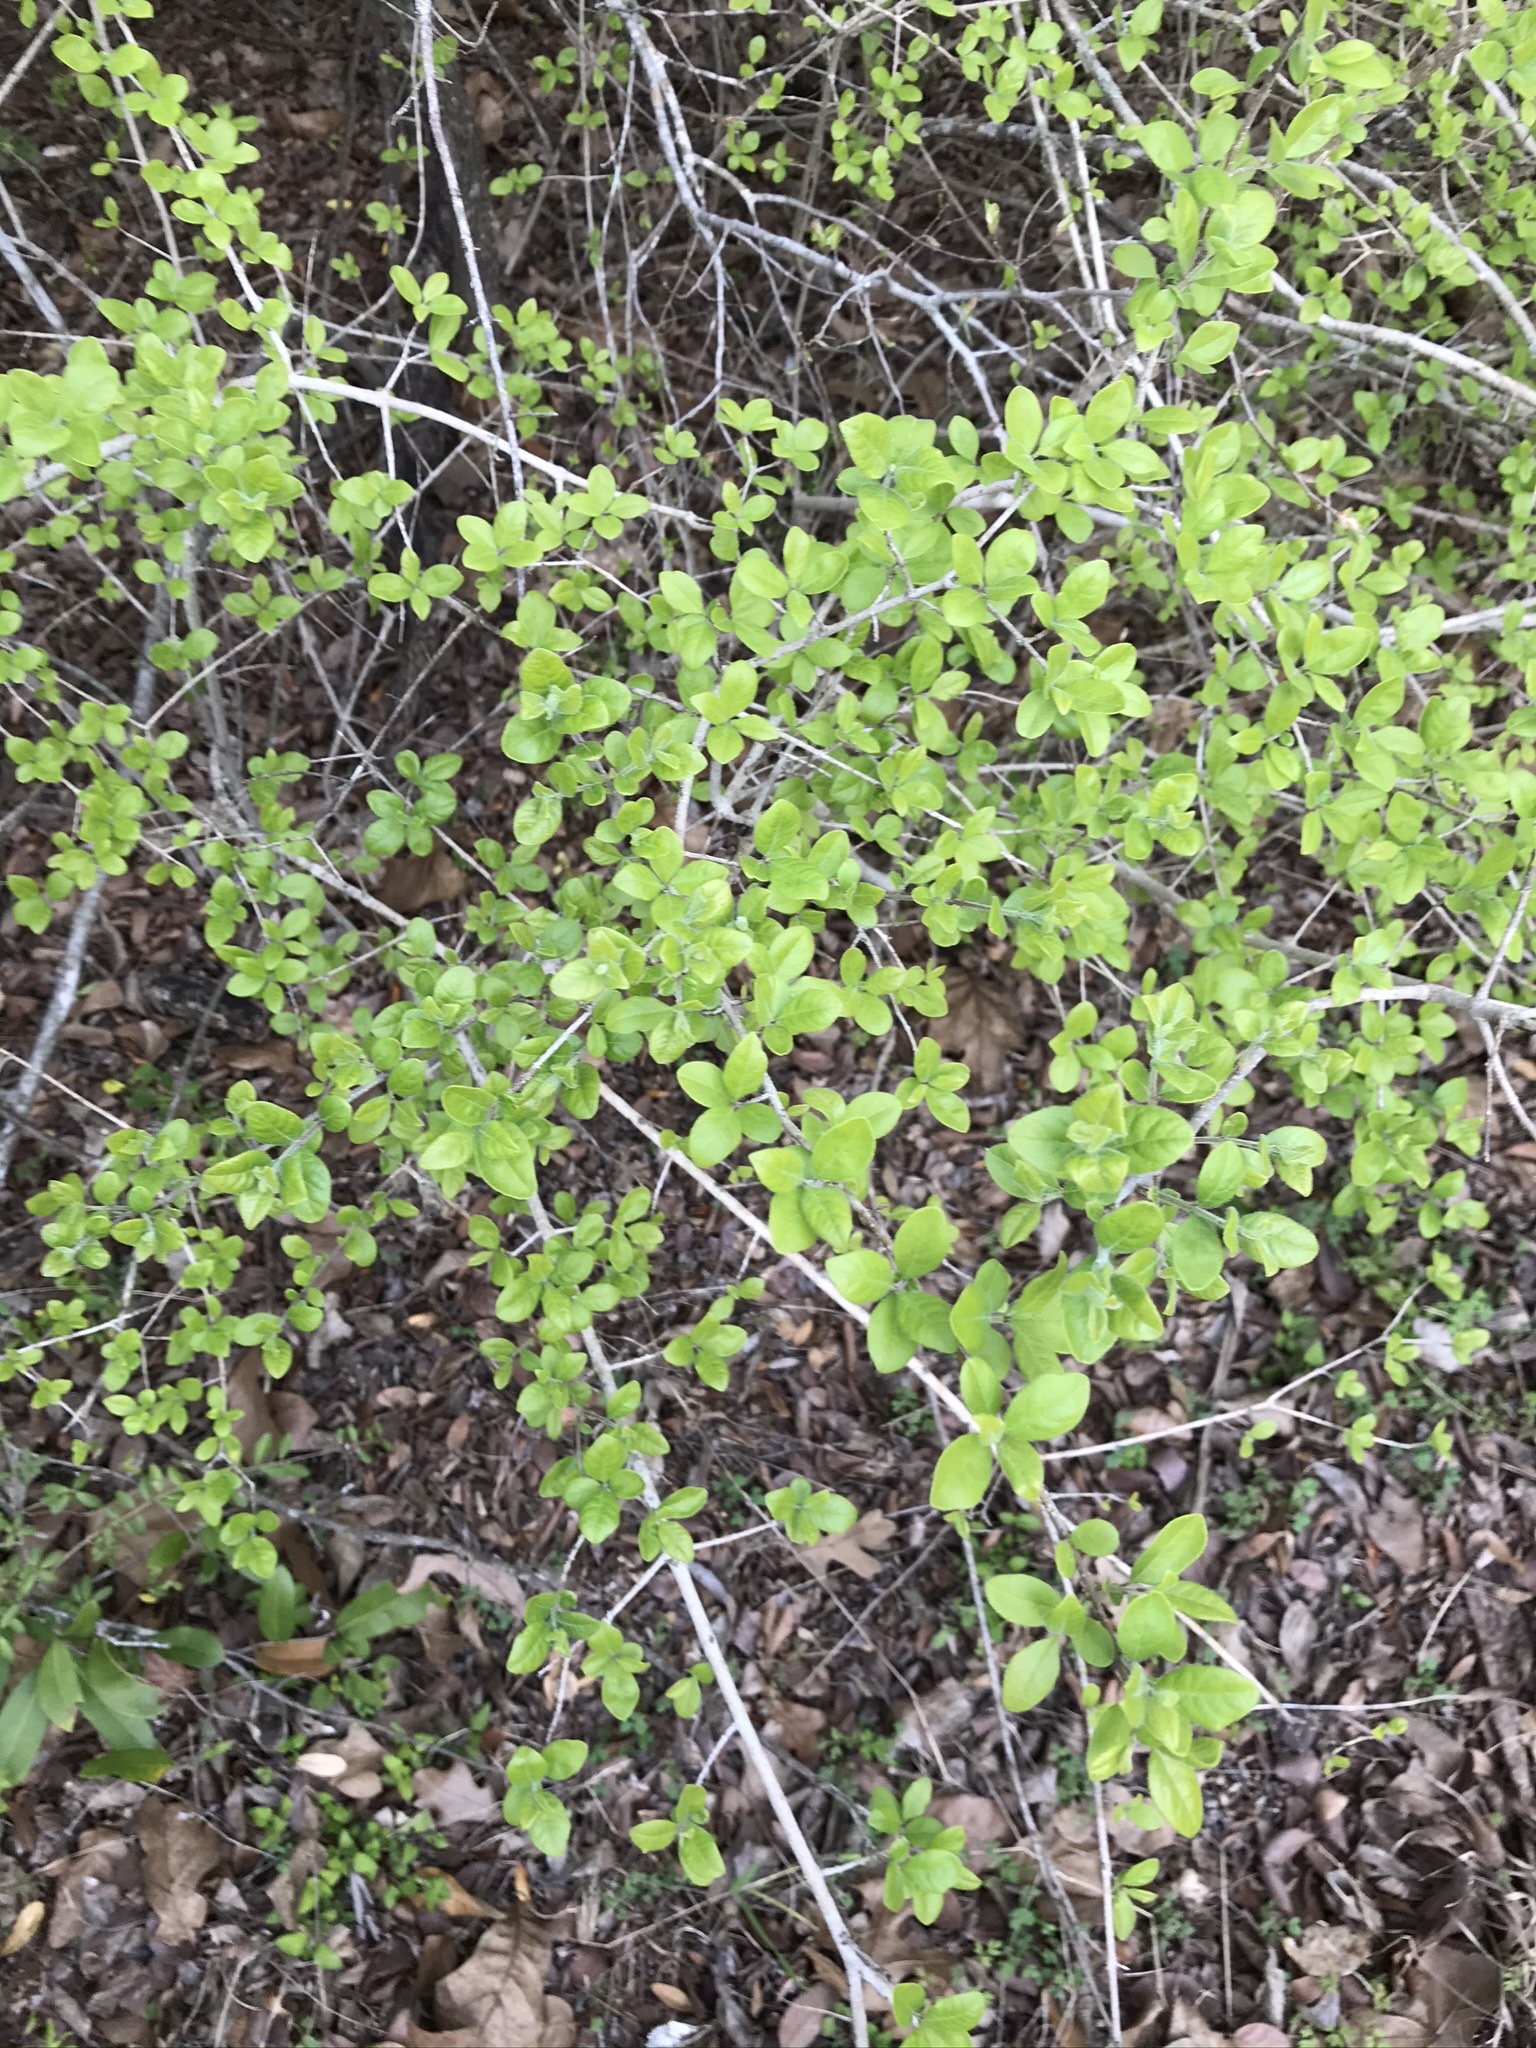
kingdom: Plantae
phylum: Tracheophyta
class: Magnoliopsida
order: Lamiales
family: Oleaceae
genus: Forestiera
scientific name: Forestiera pubescens
